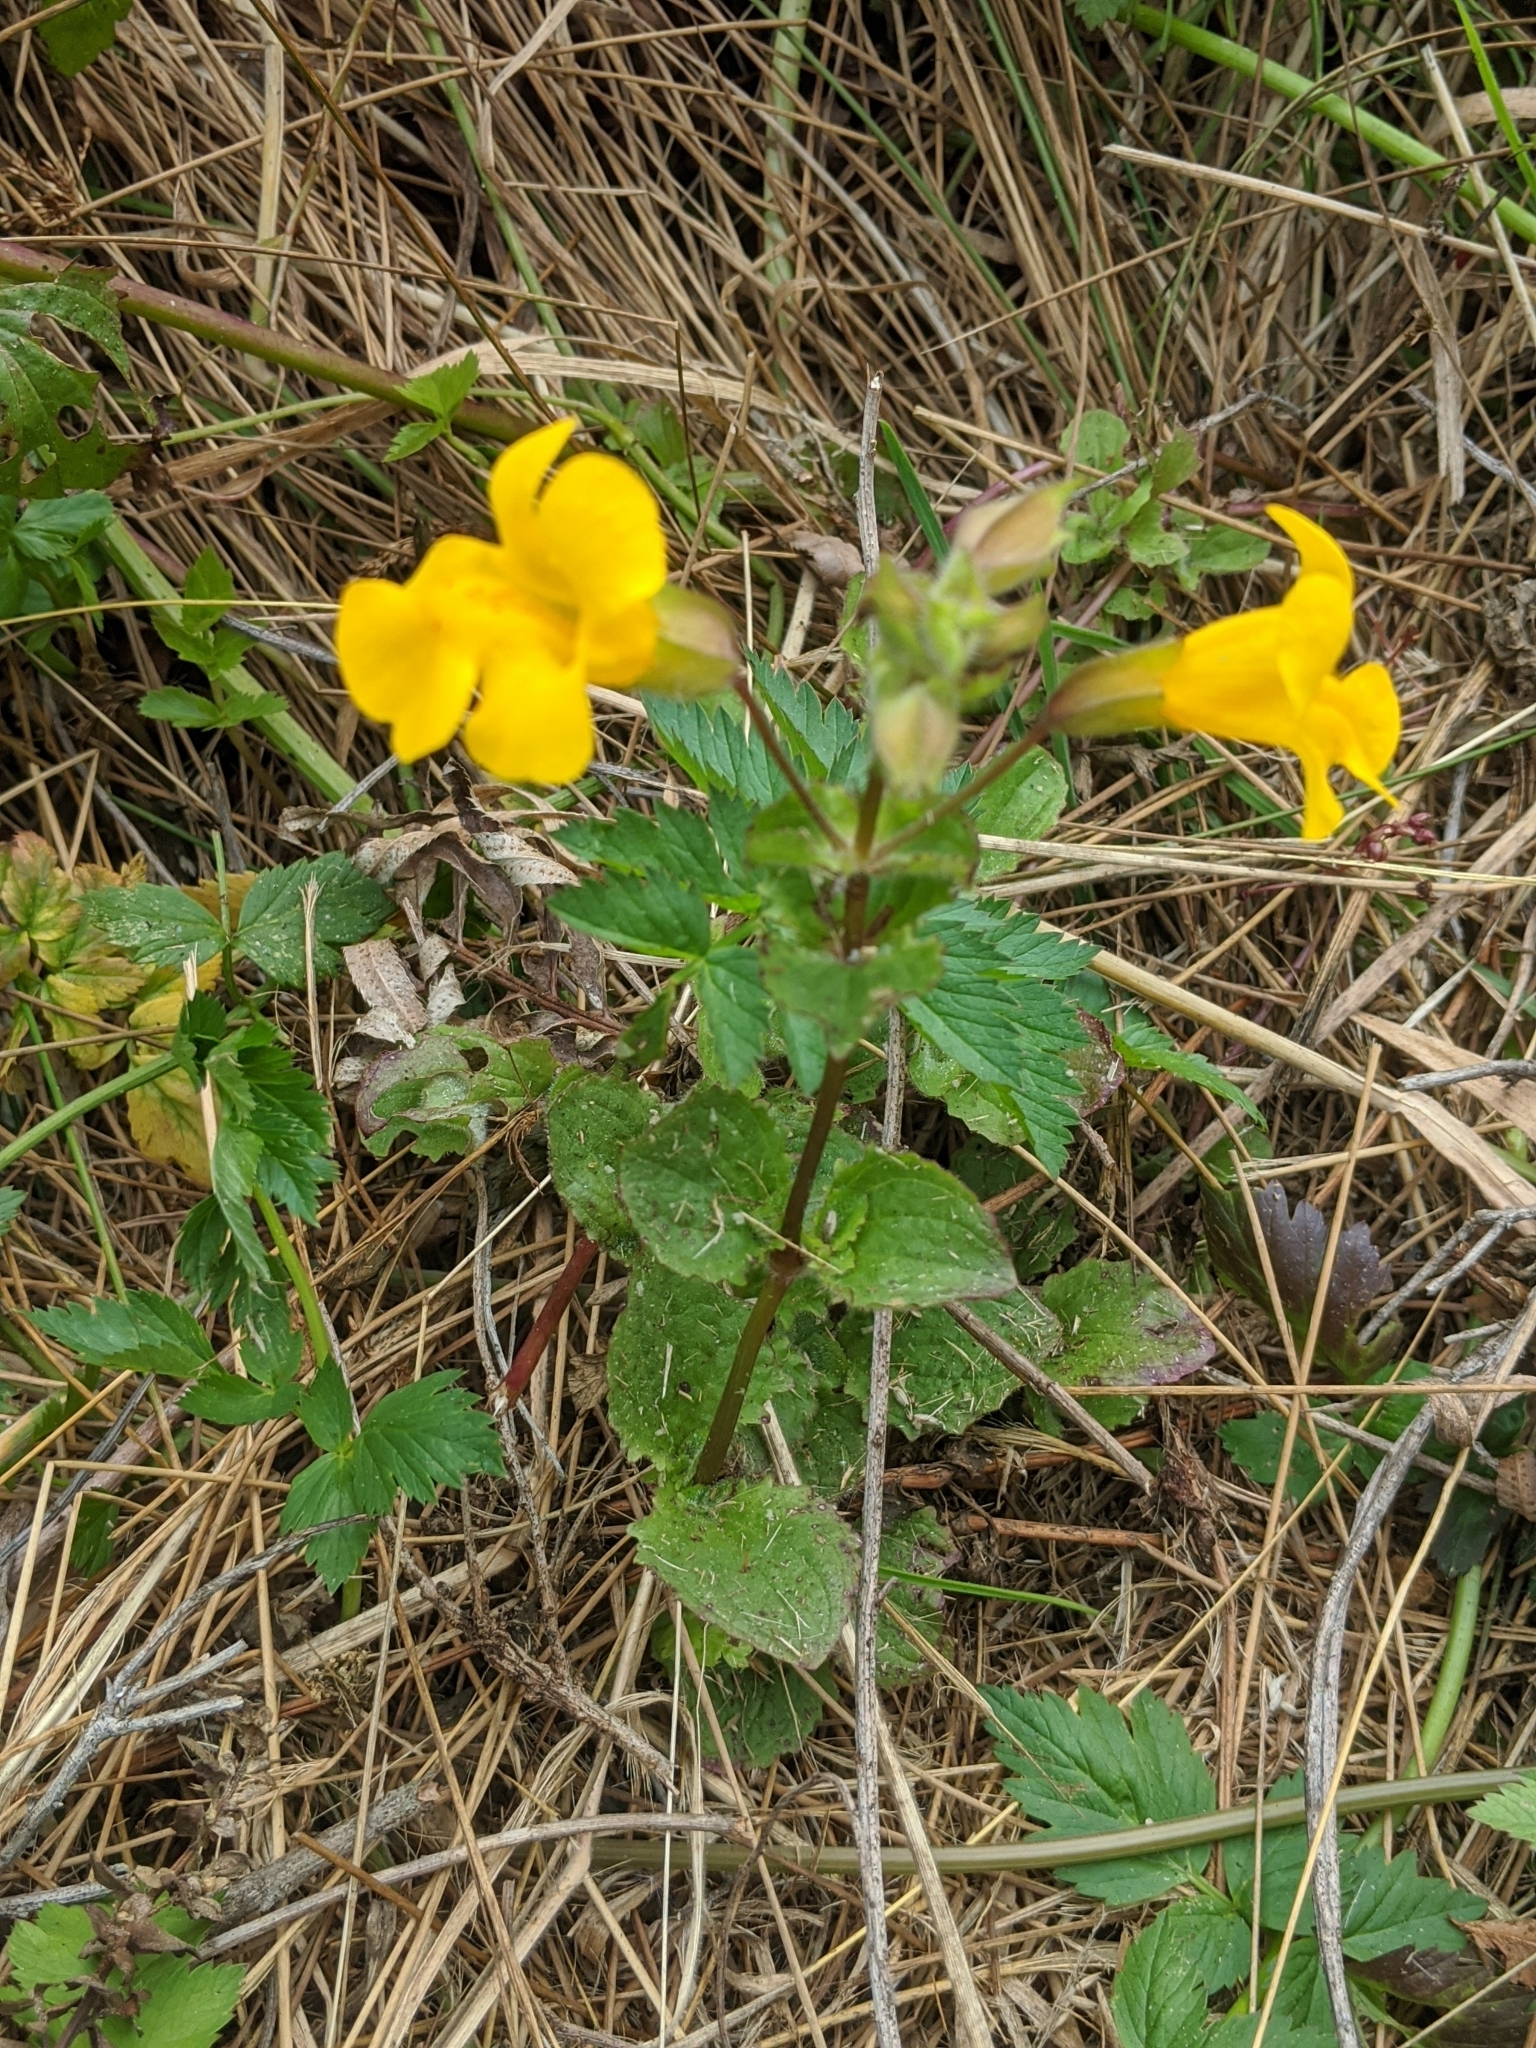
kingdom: Plantae
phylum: Tracheophyta
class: Magnoliopsida
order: Lamiales
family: Phrymaceae
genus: Erythranthe
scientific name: Erythranthe grandis
